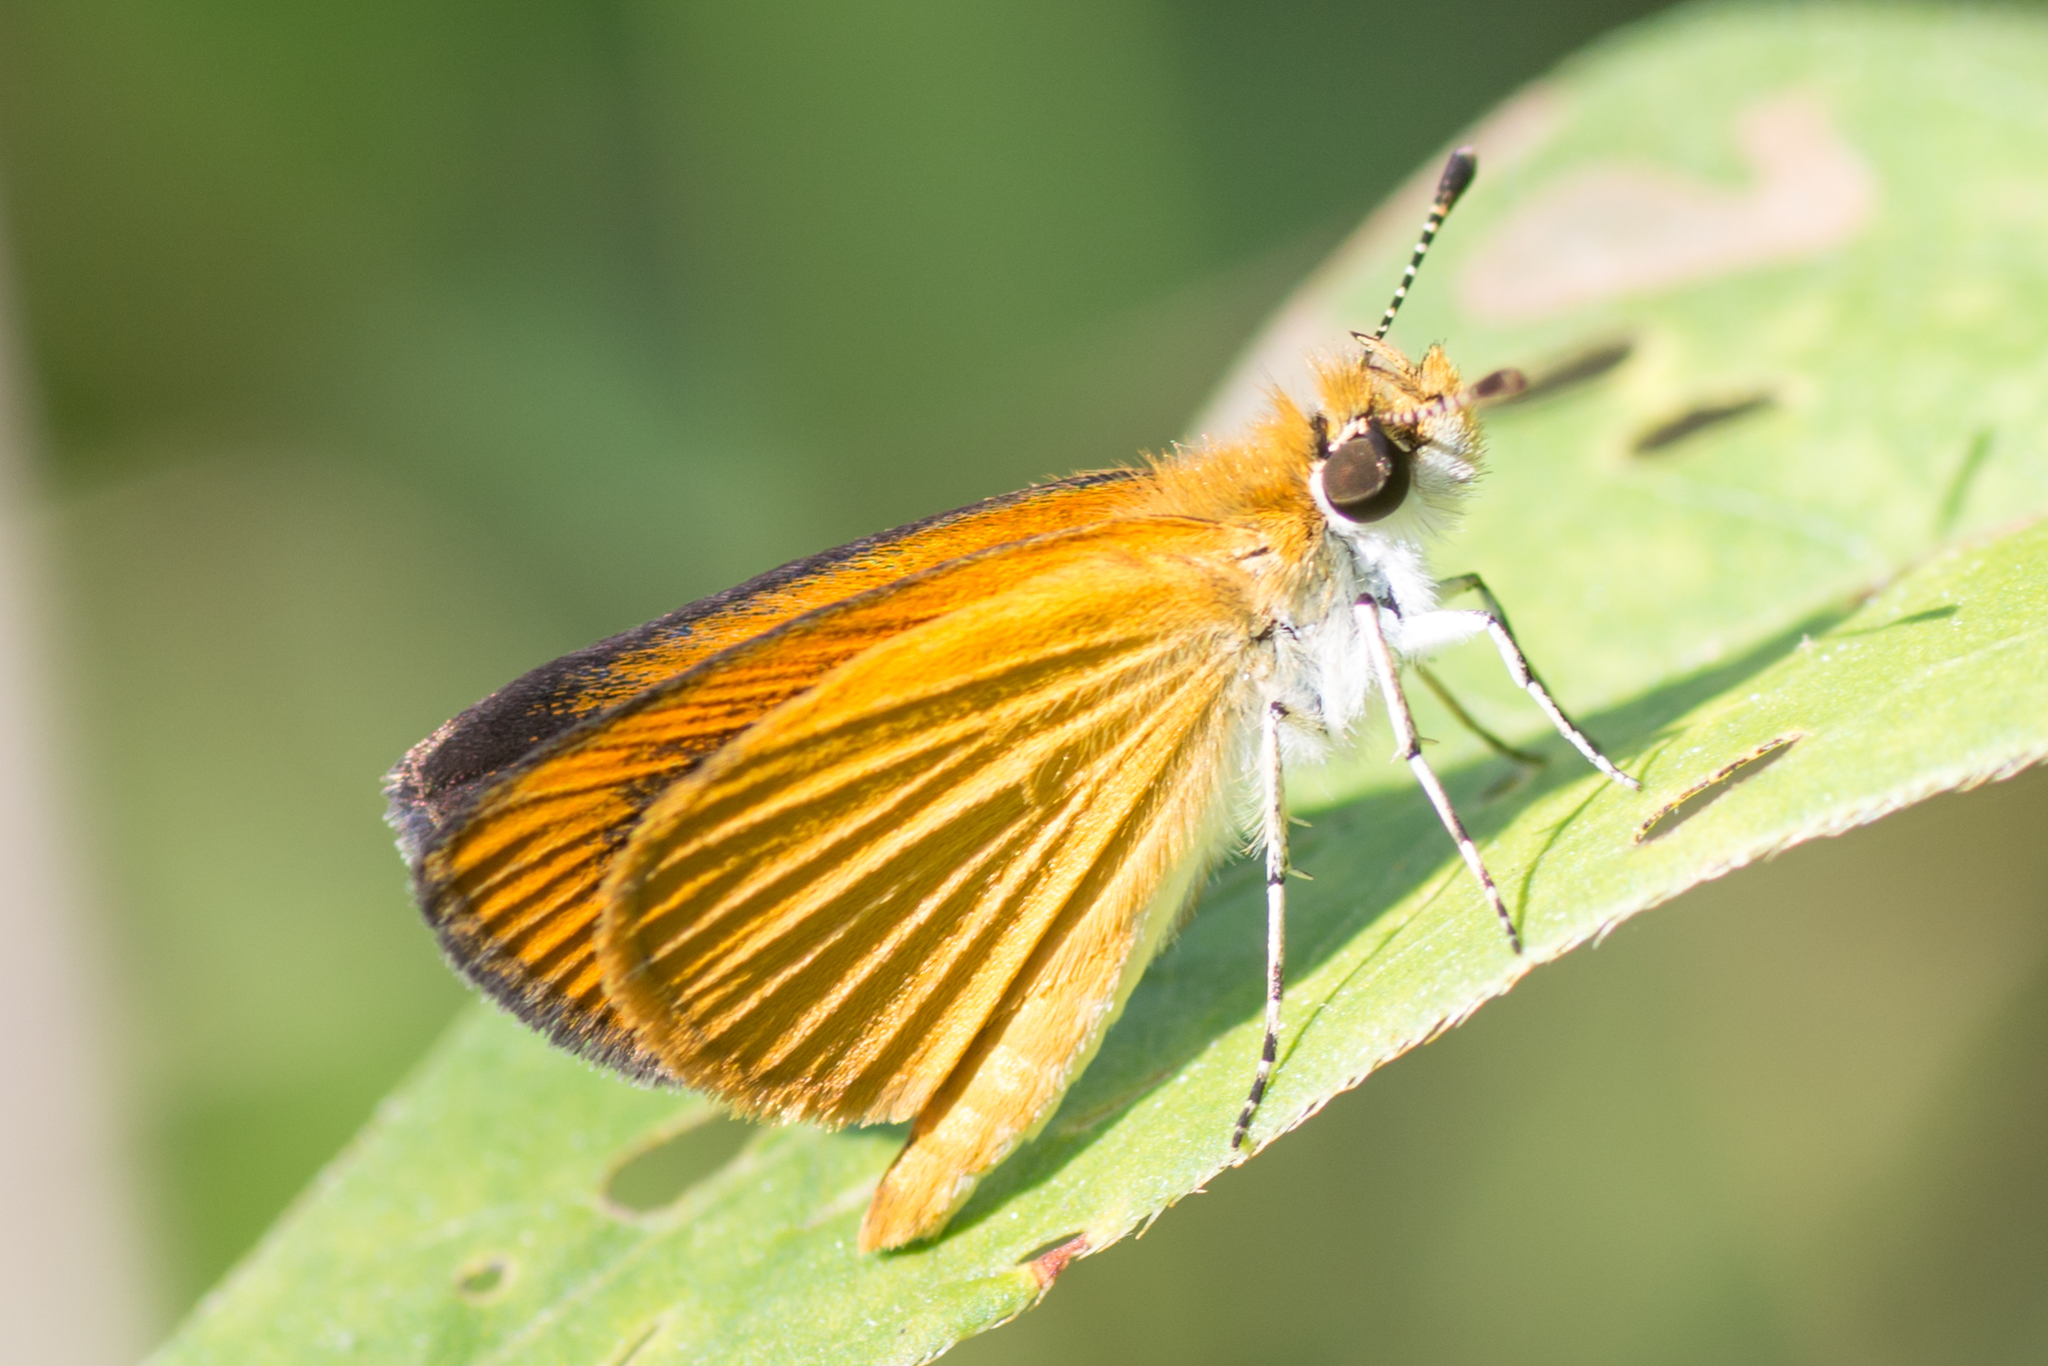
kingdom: Animalia
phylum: Arthropoda
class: Insecta
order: Lepidoptera
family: Hesperiidae
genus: Ancyloxypha
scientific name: Ancyloxypha numitor
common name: Least skipper
